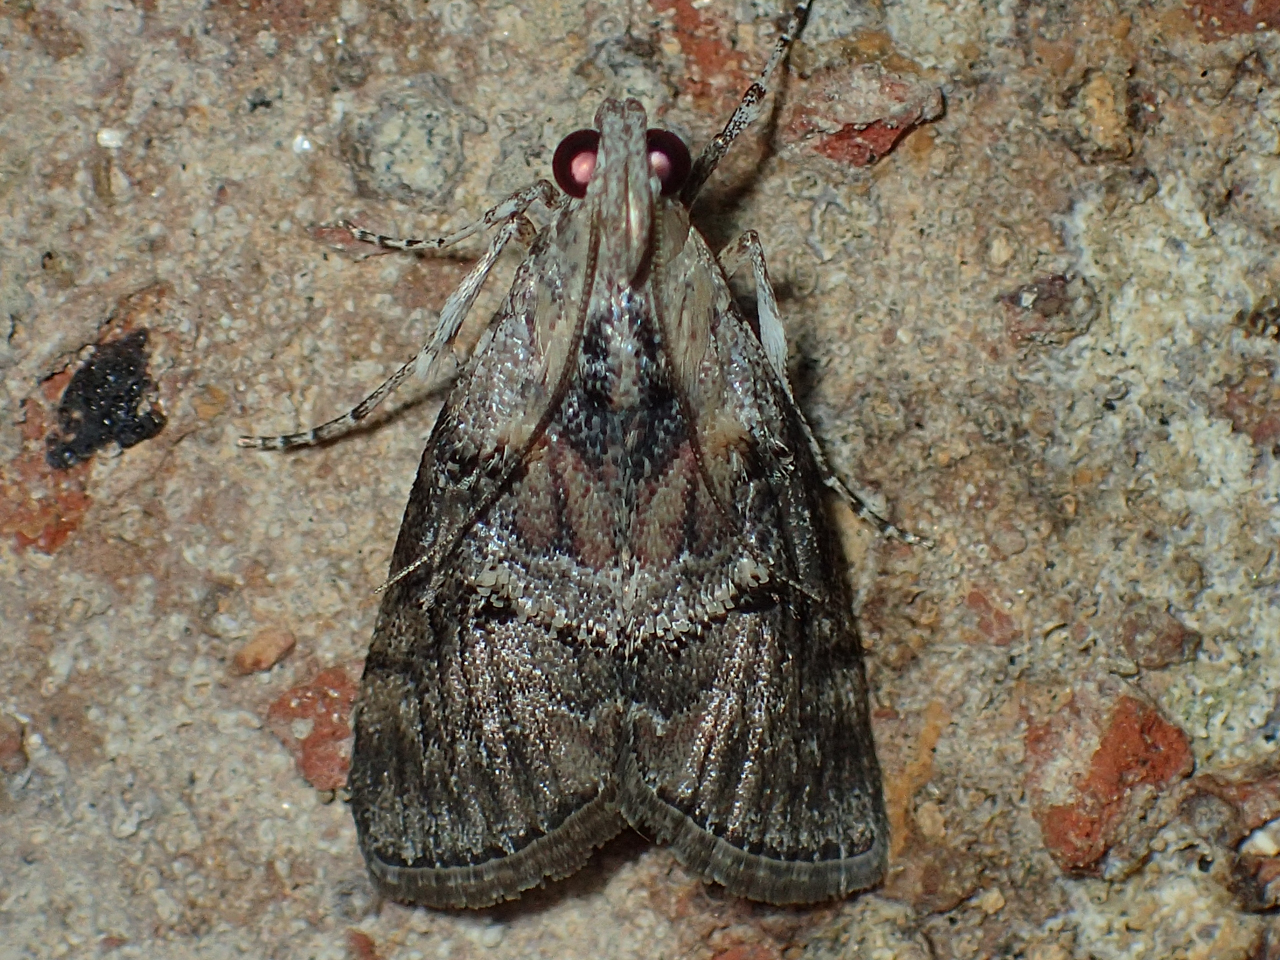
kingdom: Animalia
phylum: Arthropoda
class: Insecta
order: Lepidoptera
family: Pyralidae
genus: Pococera
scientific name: Pococera expandens
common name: Striped oak webworm moth
